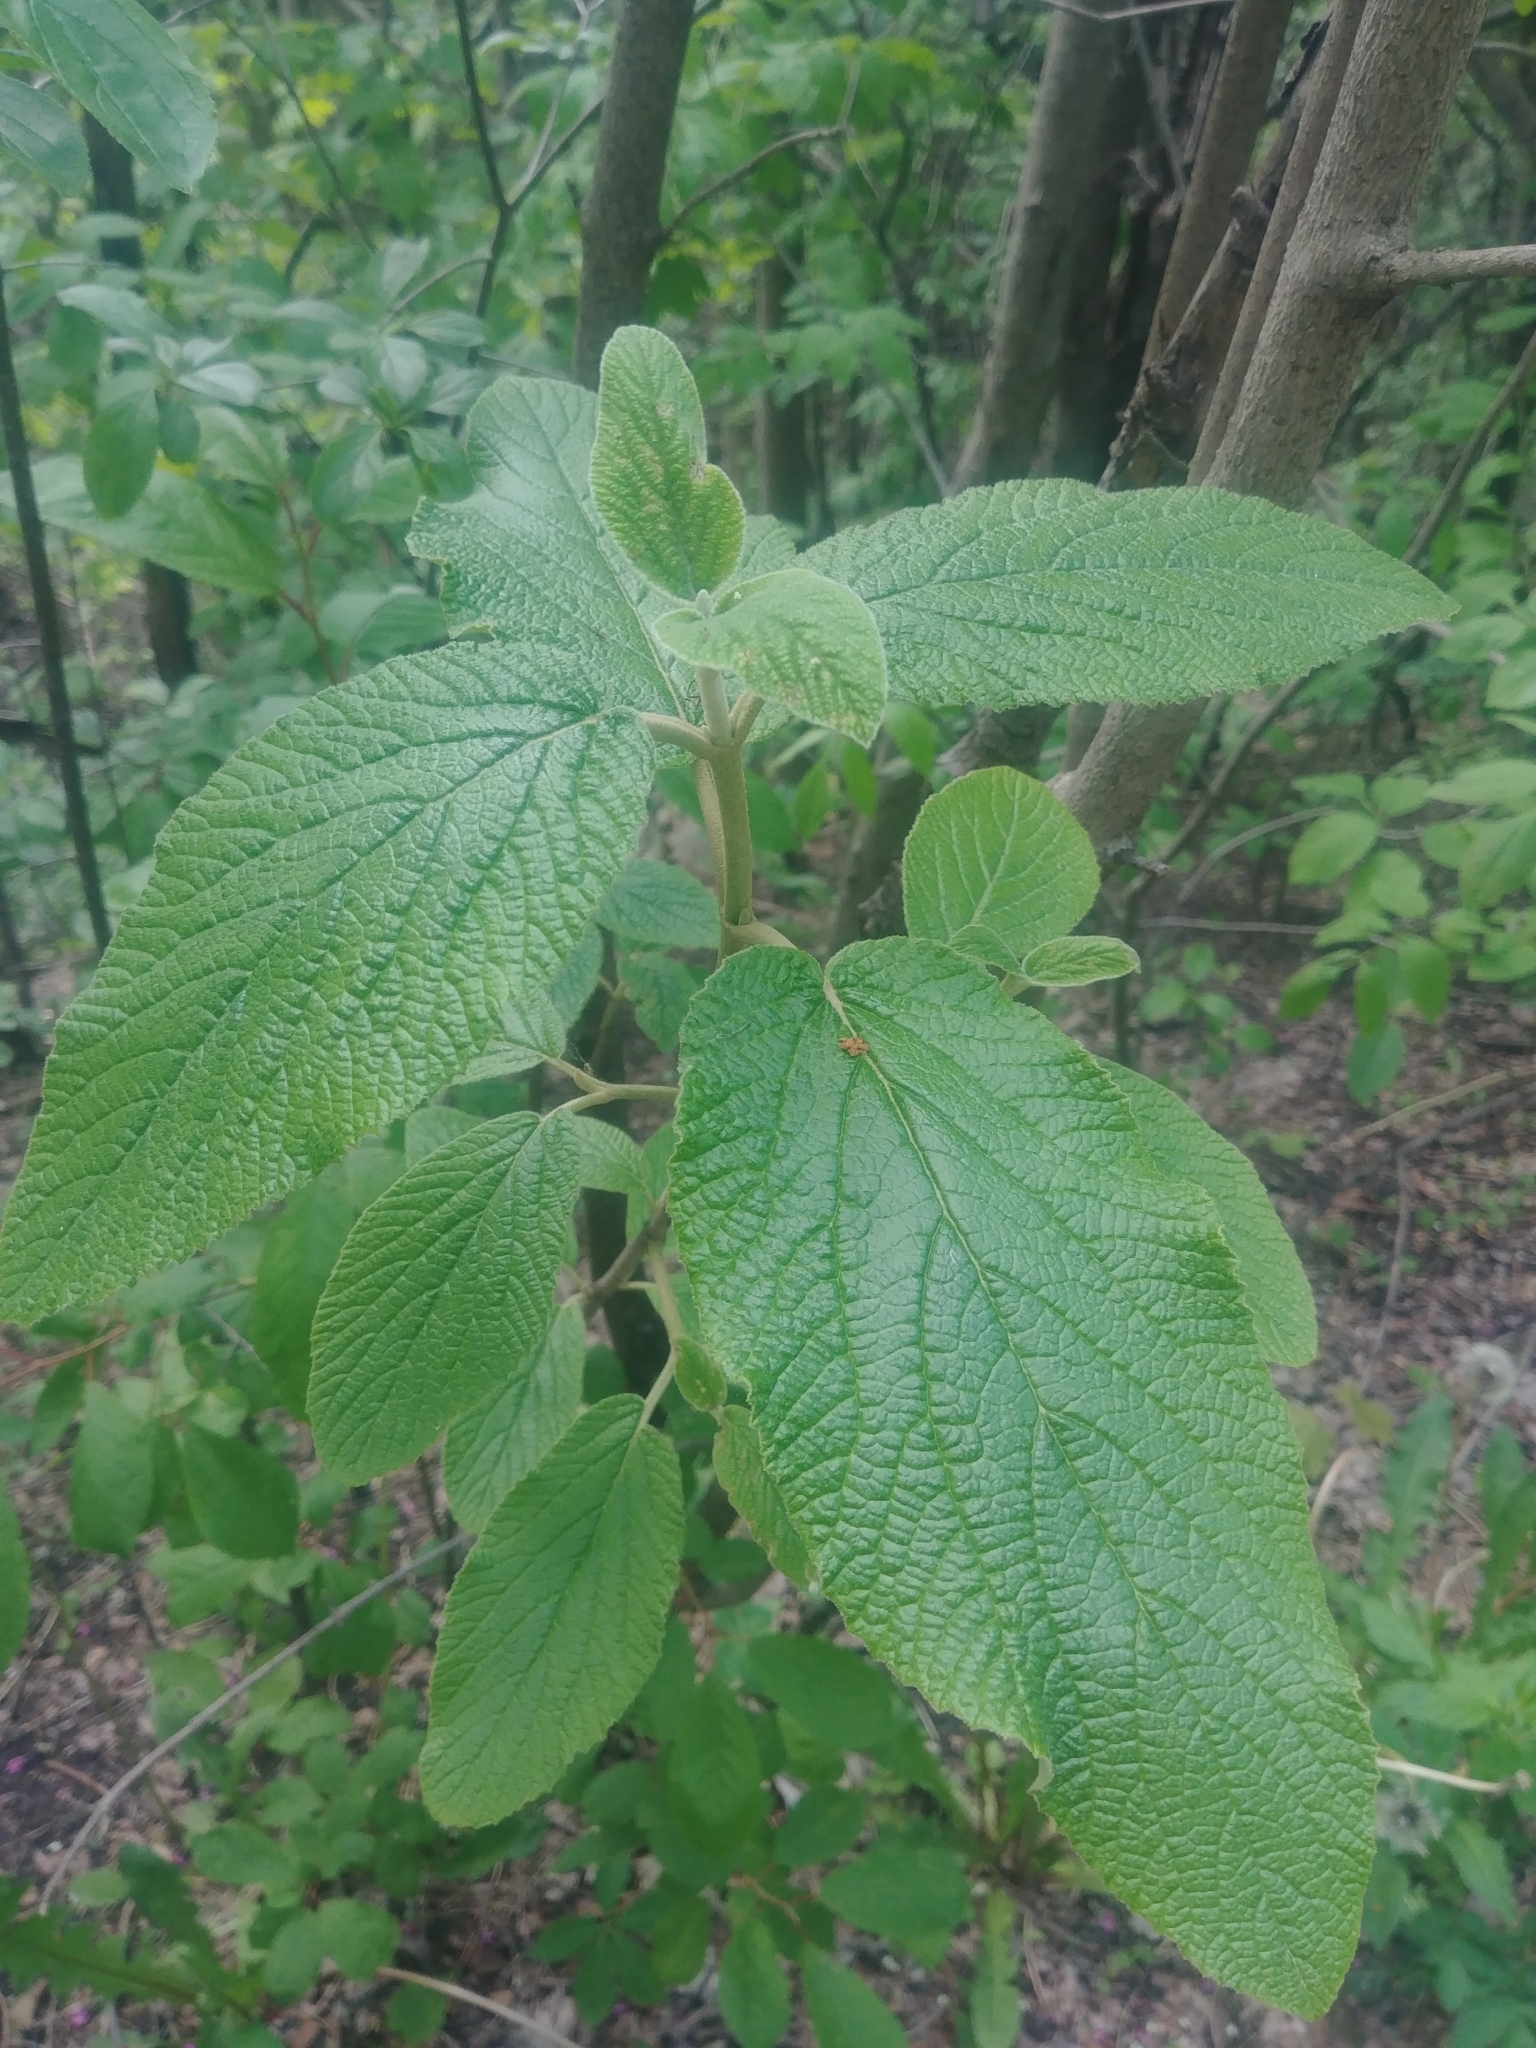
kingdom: Plantae
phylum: Tracheophyta
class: Magnoliopsida
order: Dipsacales
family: Viburnaceae
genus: Viburnum
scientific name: Viburnum lantana
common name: Wayfaring tree
